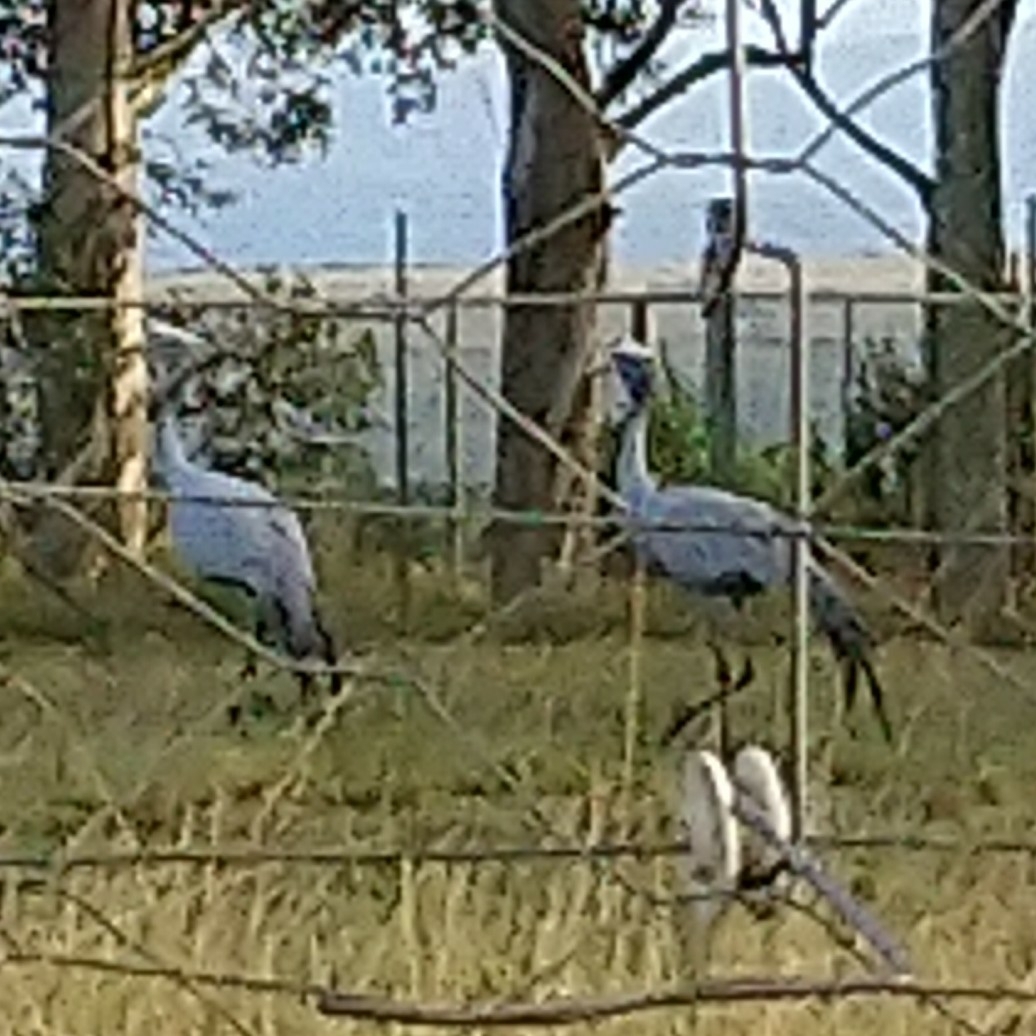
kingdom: Animalia
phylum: Chordata
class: Aves
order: Gruiformes
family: Gruidae
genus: Anthropoides
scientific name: Anthropoides paradiseus
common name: Blue crane
